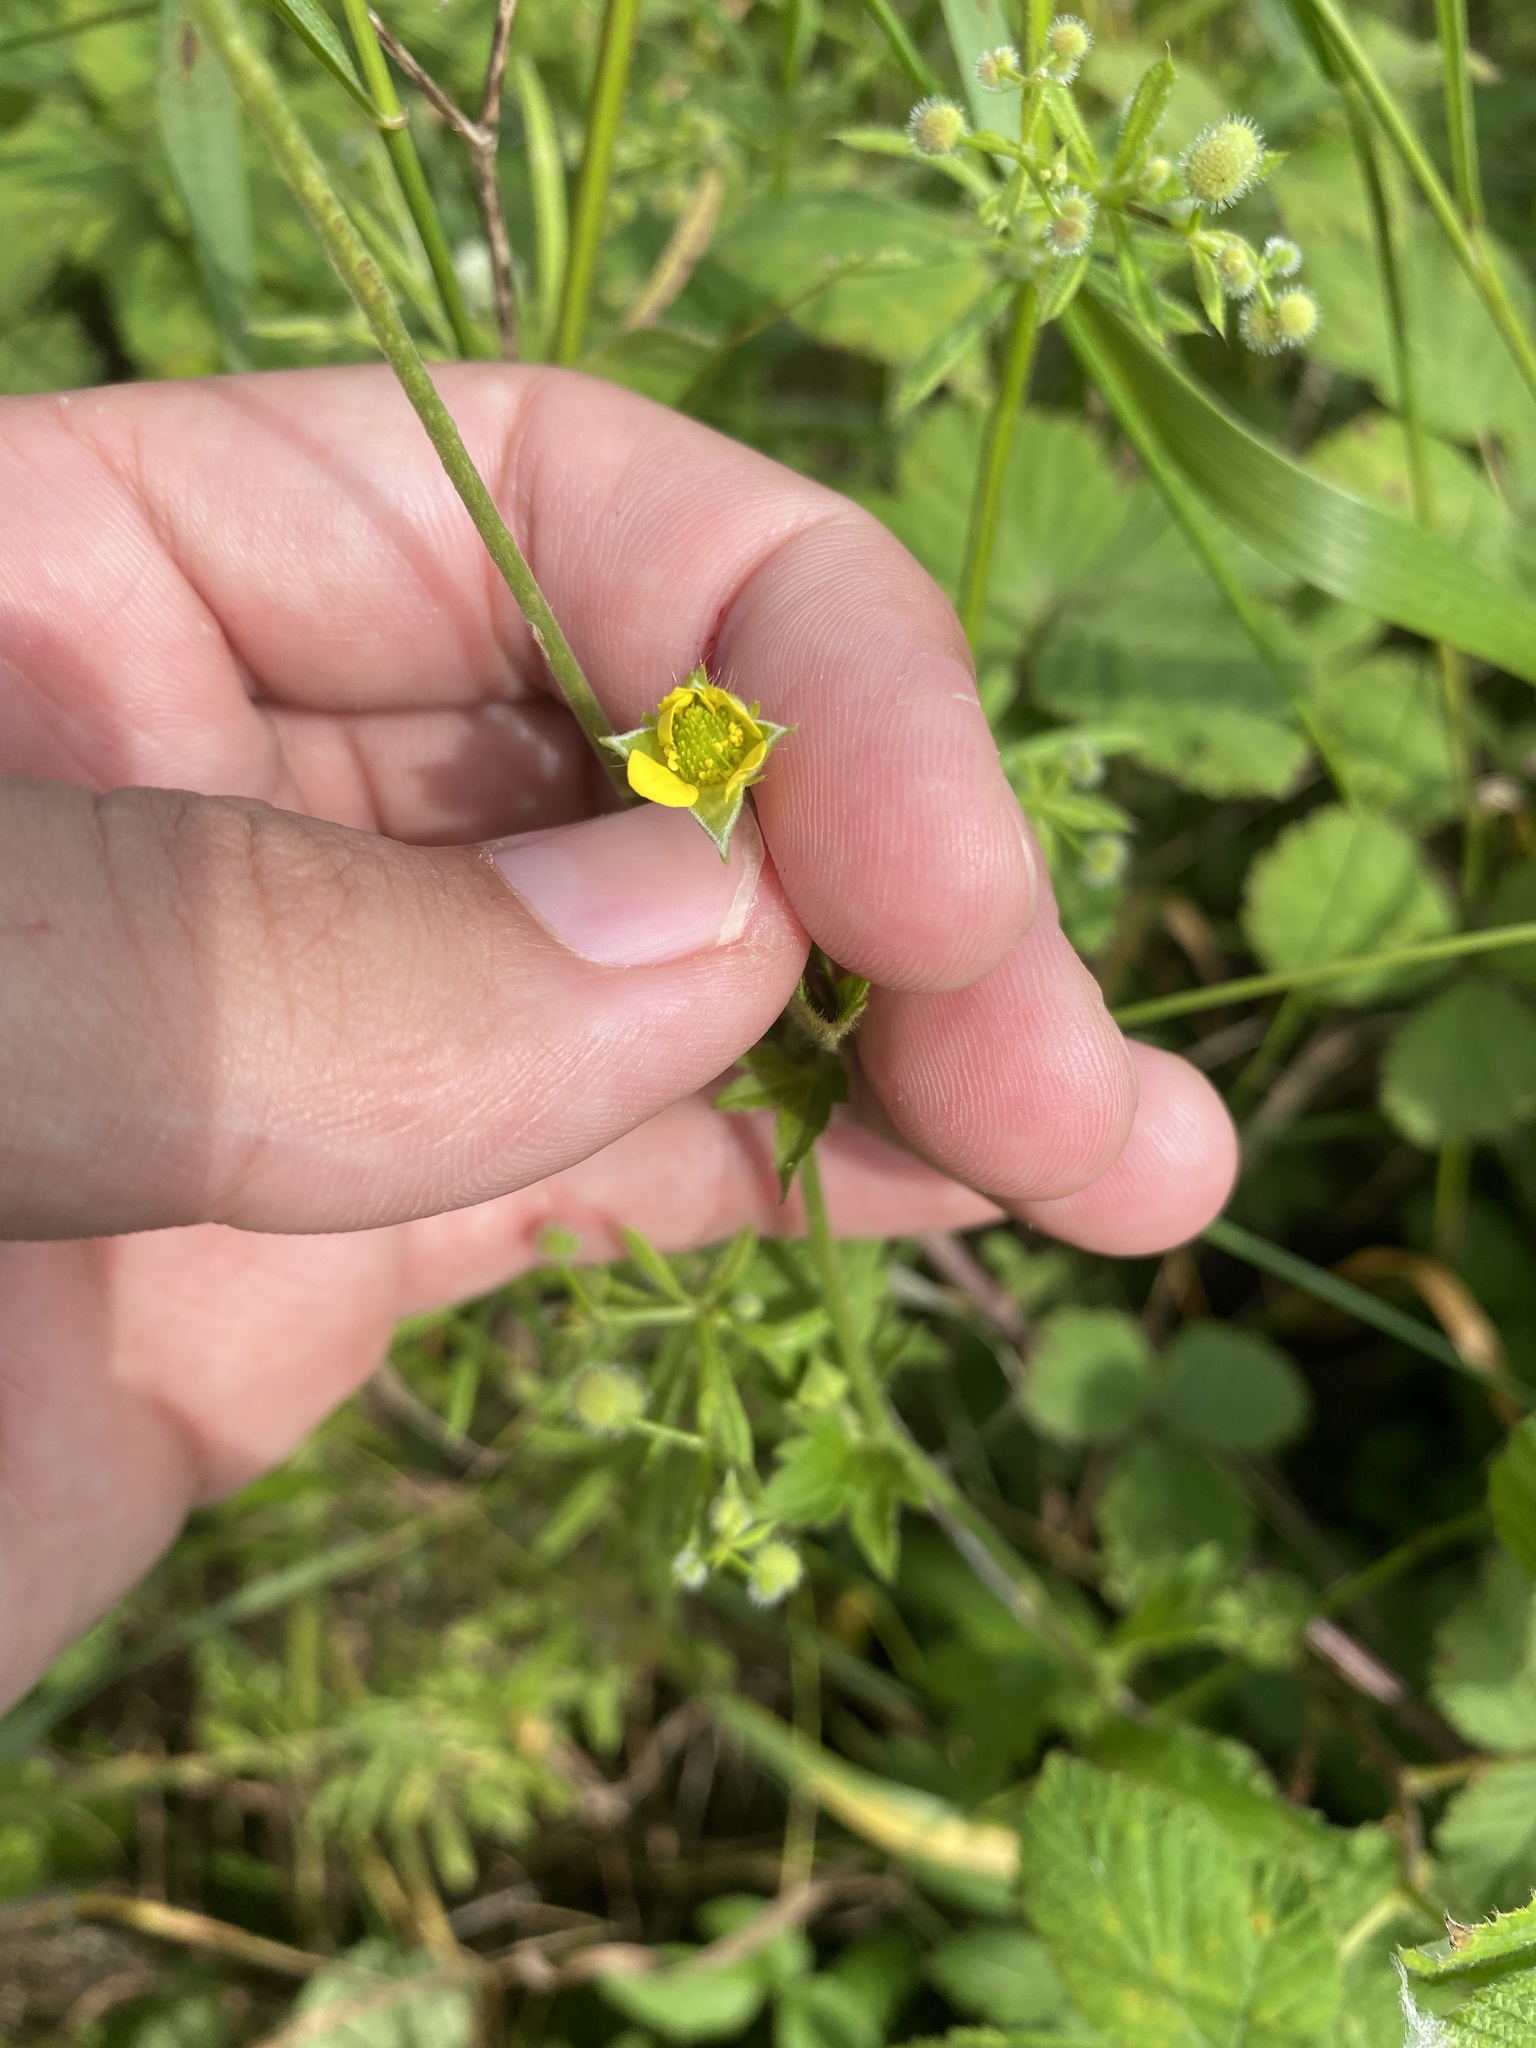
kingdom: Plantae
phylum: Tracheophyta
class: Magnoliopsida
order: Rosales
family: Rosaceae
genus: Geum
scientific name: Geum urbanum
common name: Wood avens
